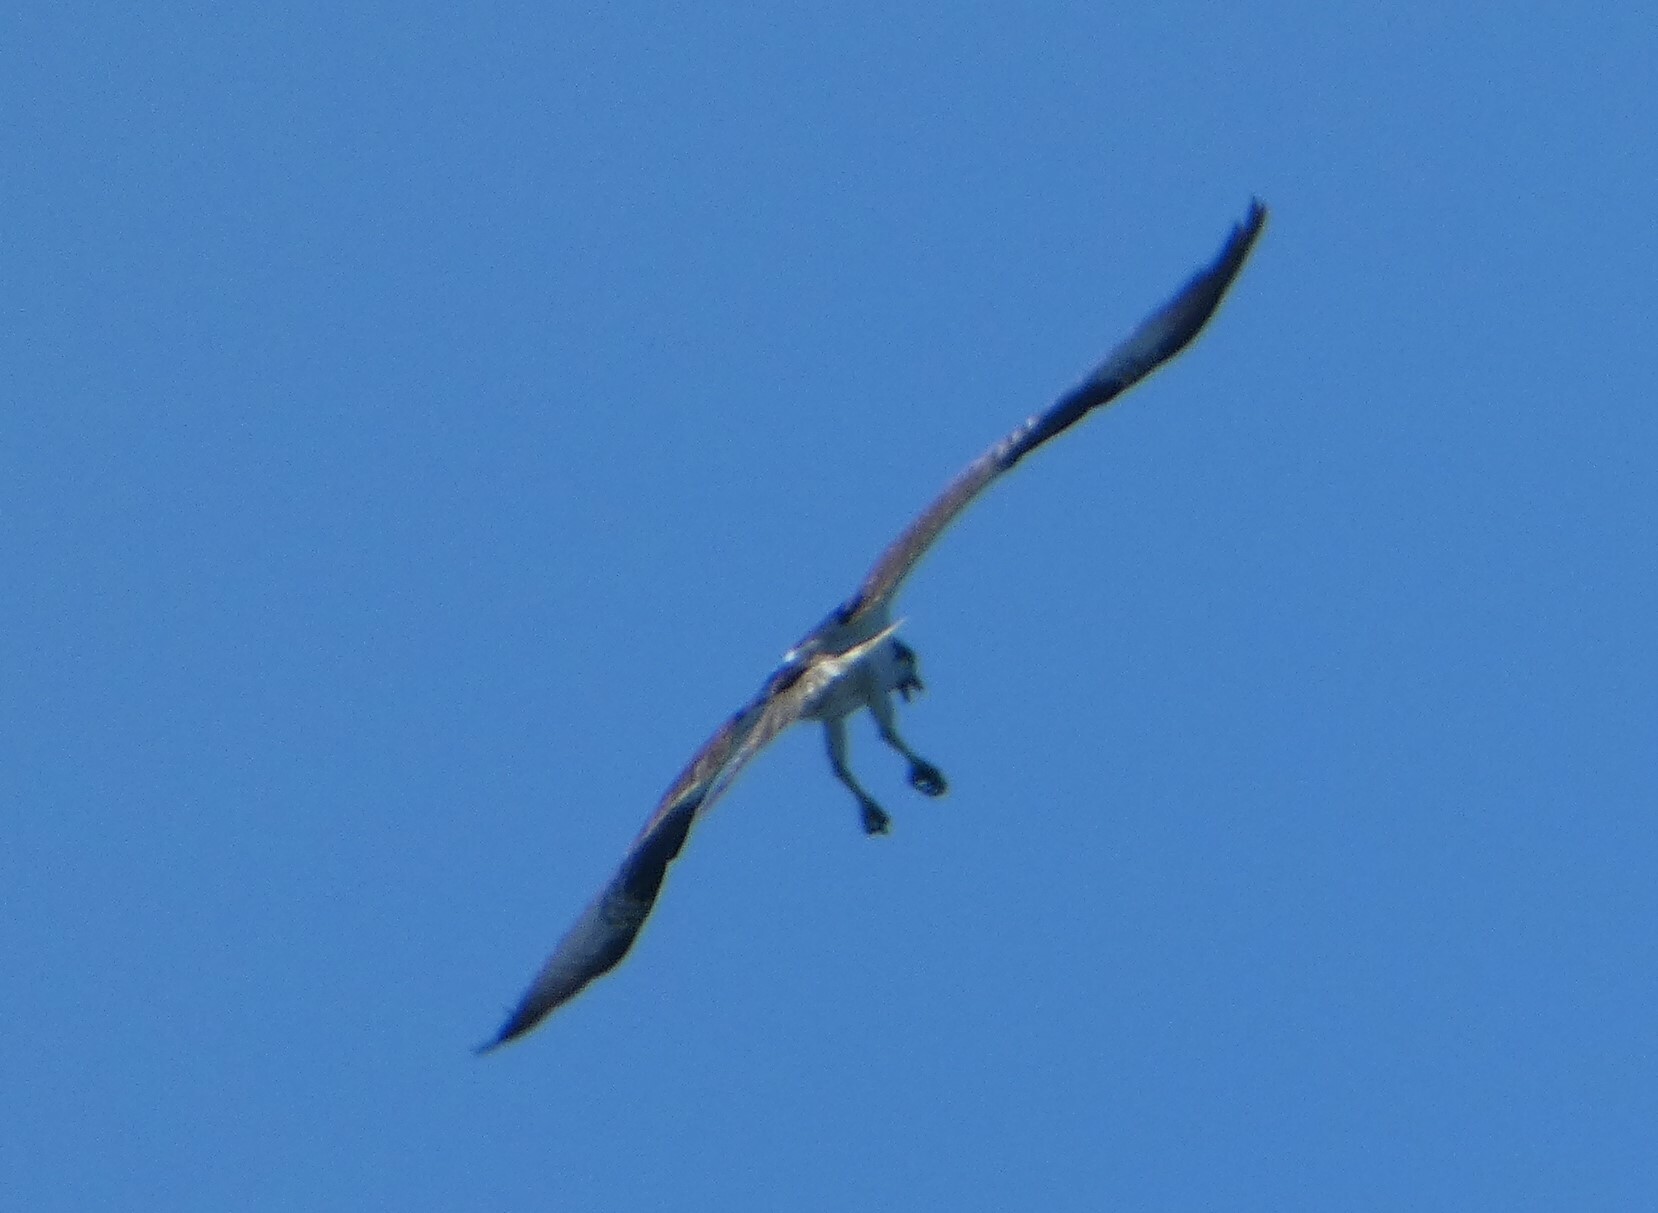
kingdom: Animalia
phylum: Chordata
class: Aves
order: Accipitriformes
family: Pandionidae
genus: Pandion
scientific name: Pandion haliaetus
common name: Osprey
